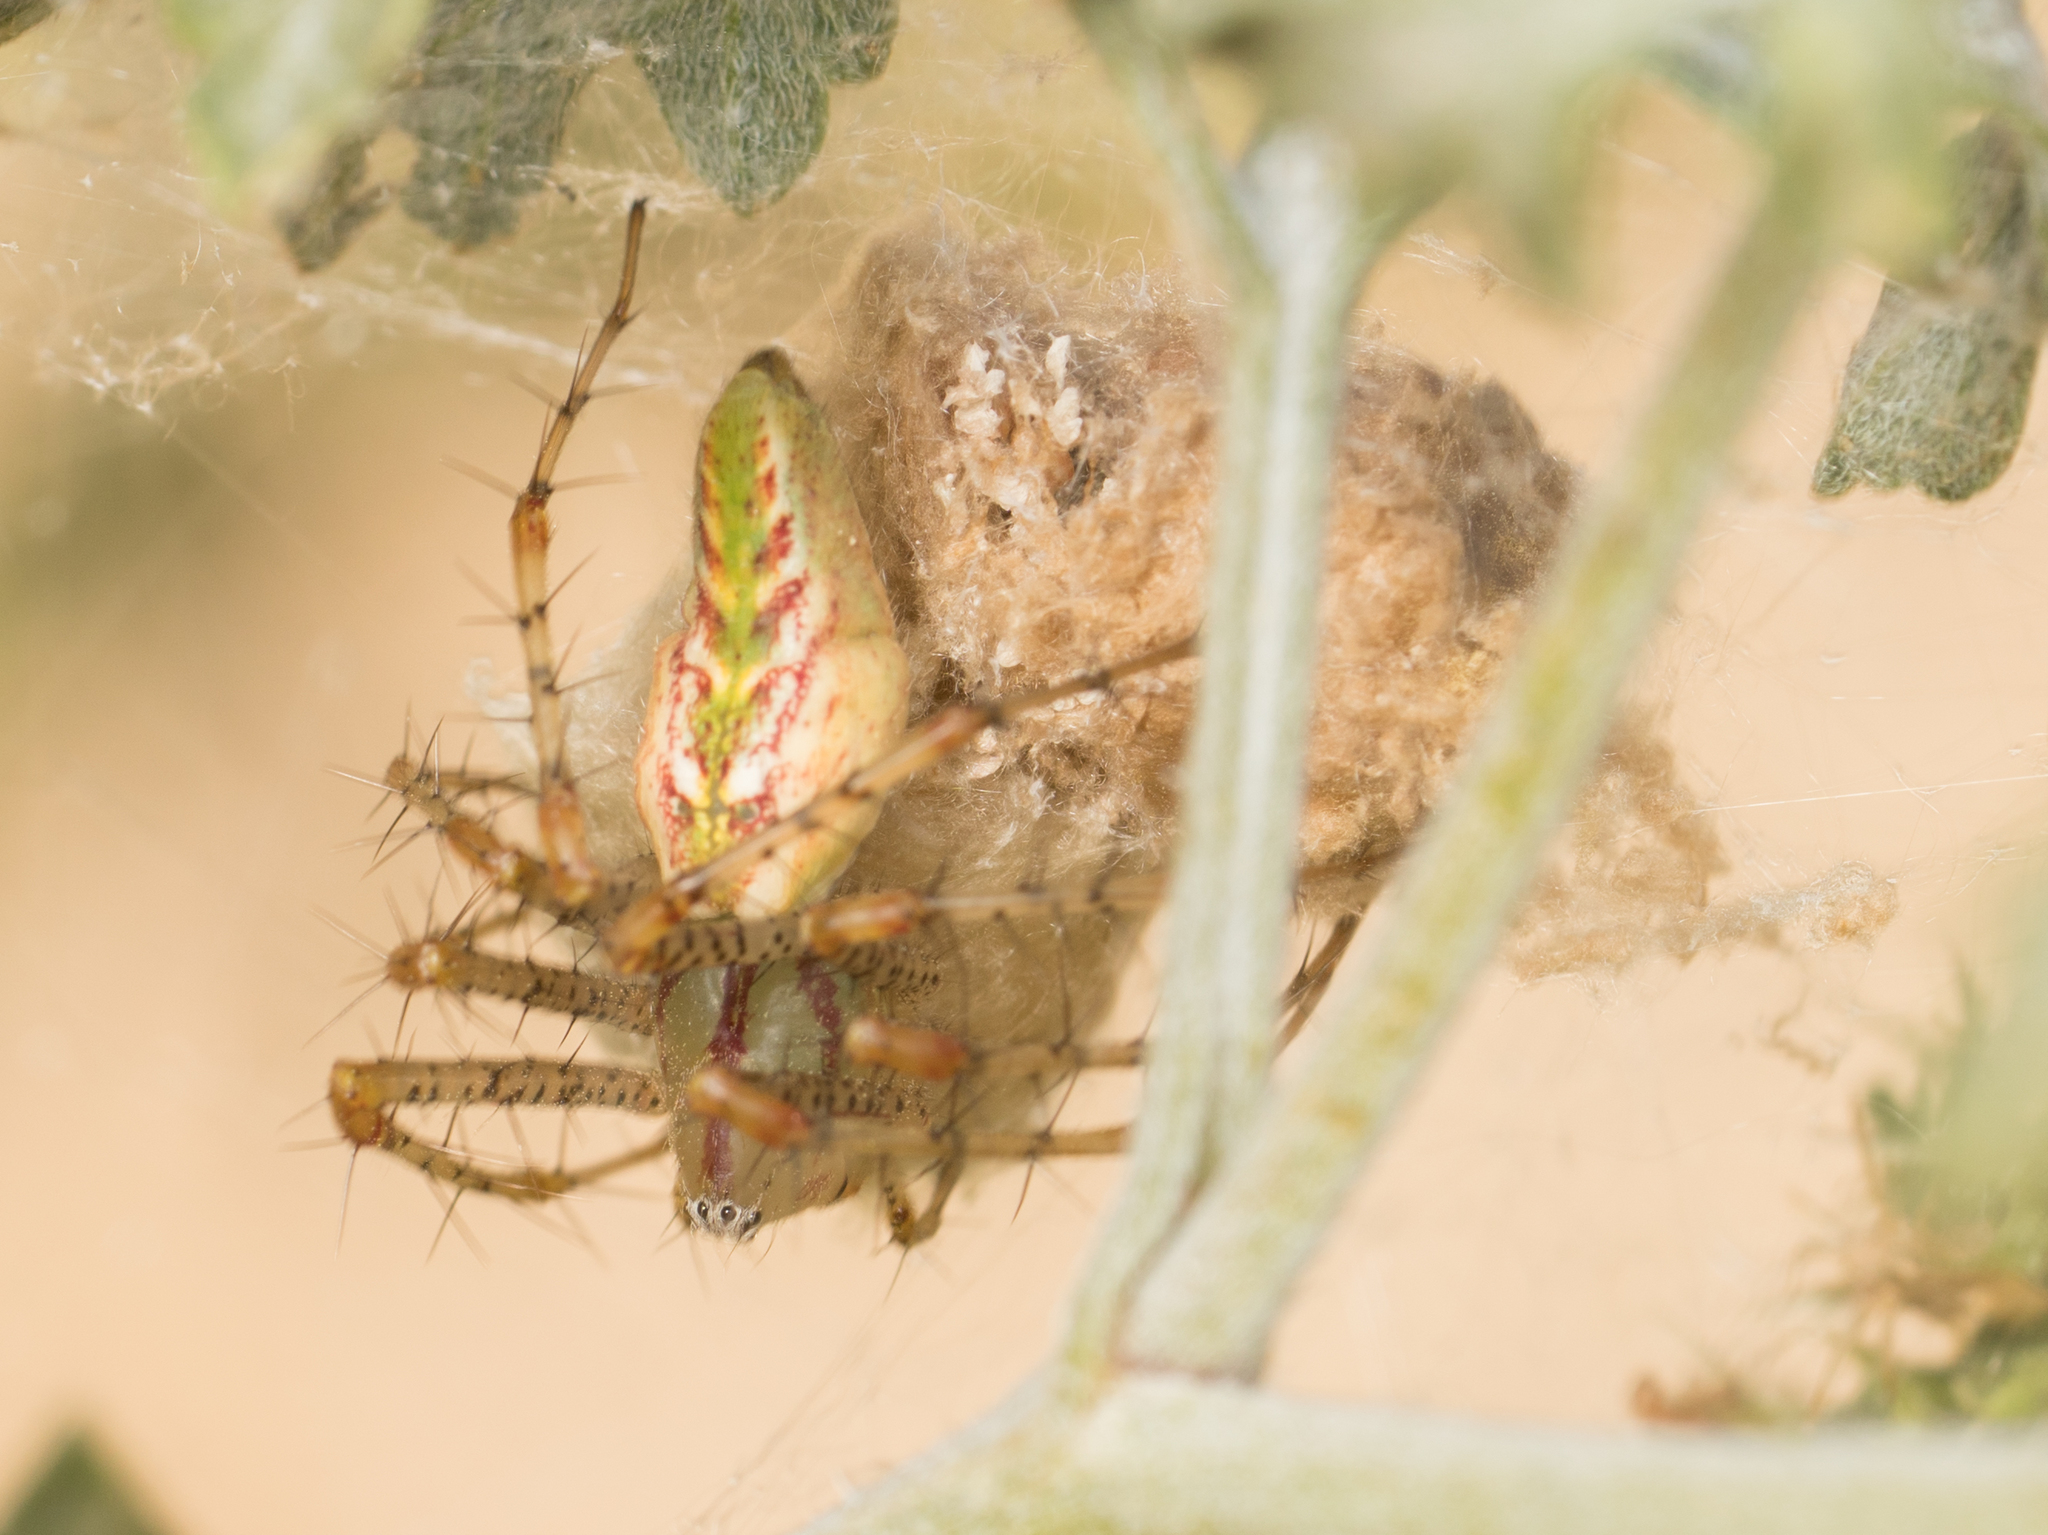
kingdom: Animalia
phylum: Arthropoda
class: Arachnida
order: Araneae
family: Oxyopidae
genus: Peucetia
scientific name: Peucetia viridans
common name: Lynx spiders
